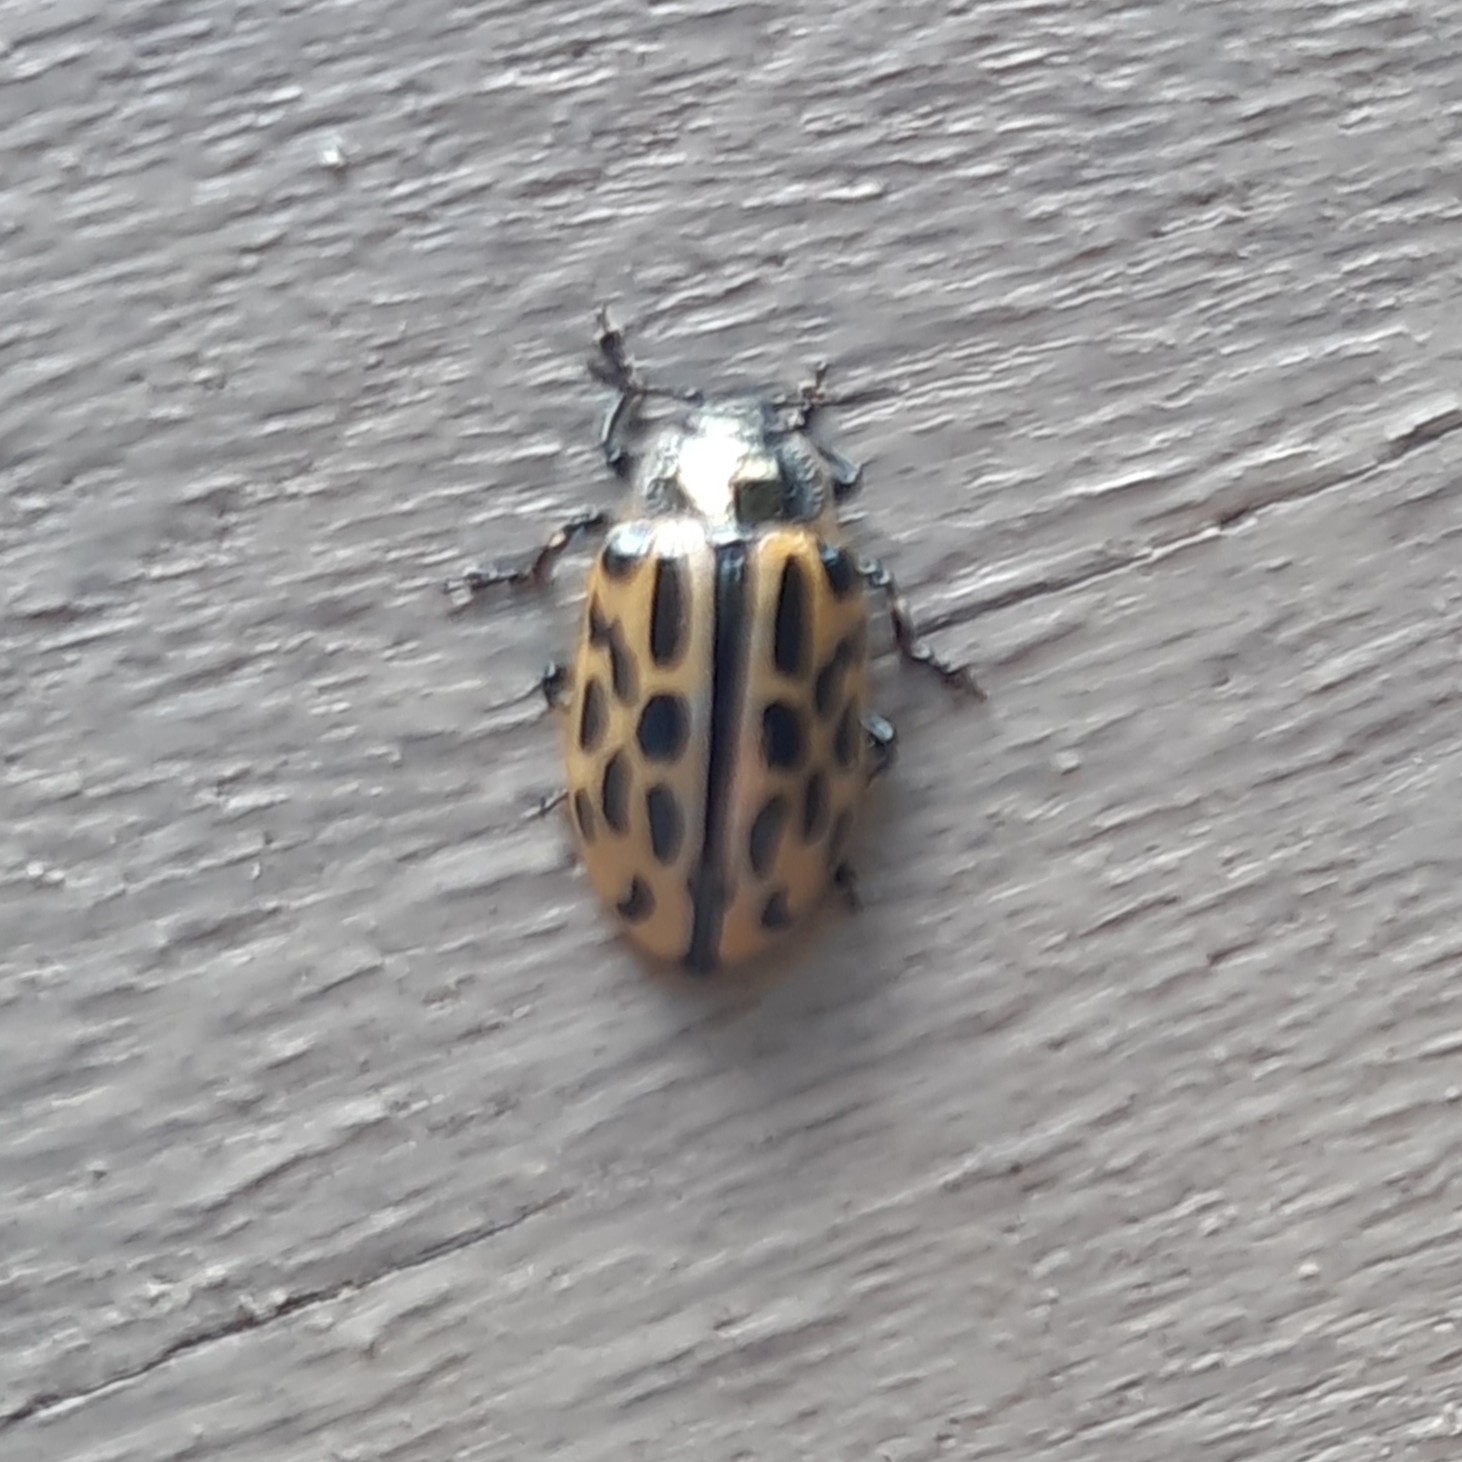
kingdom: Animalia
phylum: Arthropoda
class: Insecta
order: Coleoptera
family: Chrysomelidae
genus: Chrysomela
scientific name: Chrysomela vigintipunctata
